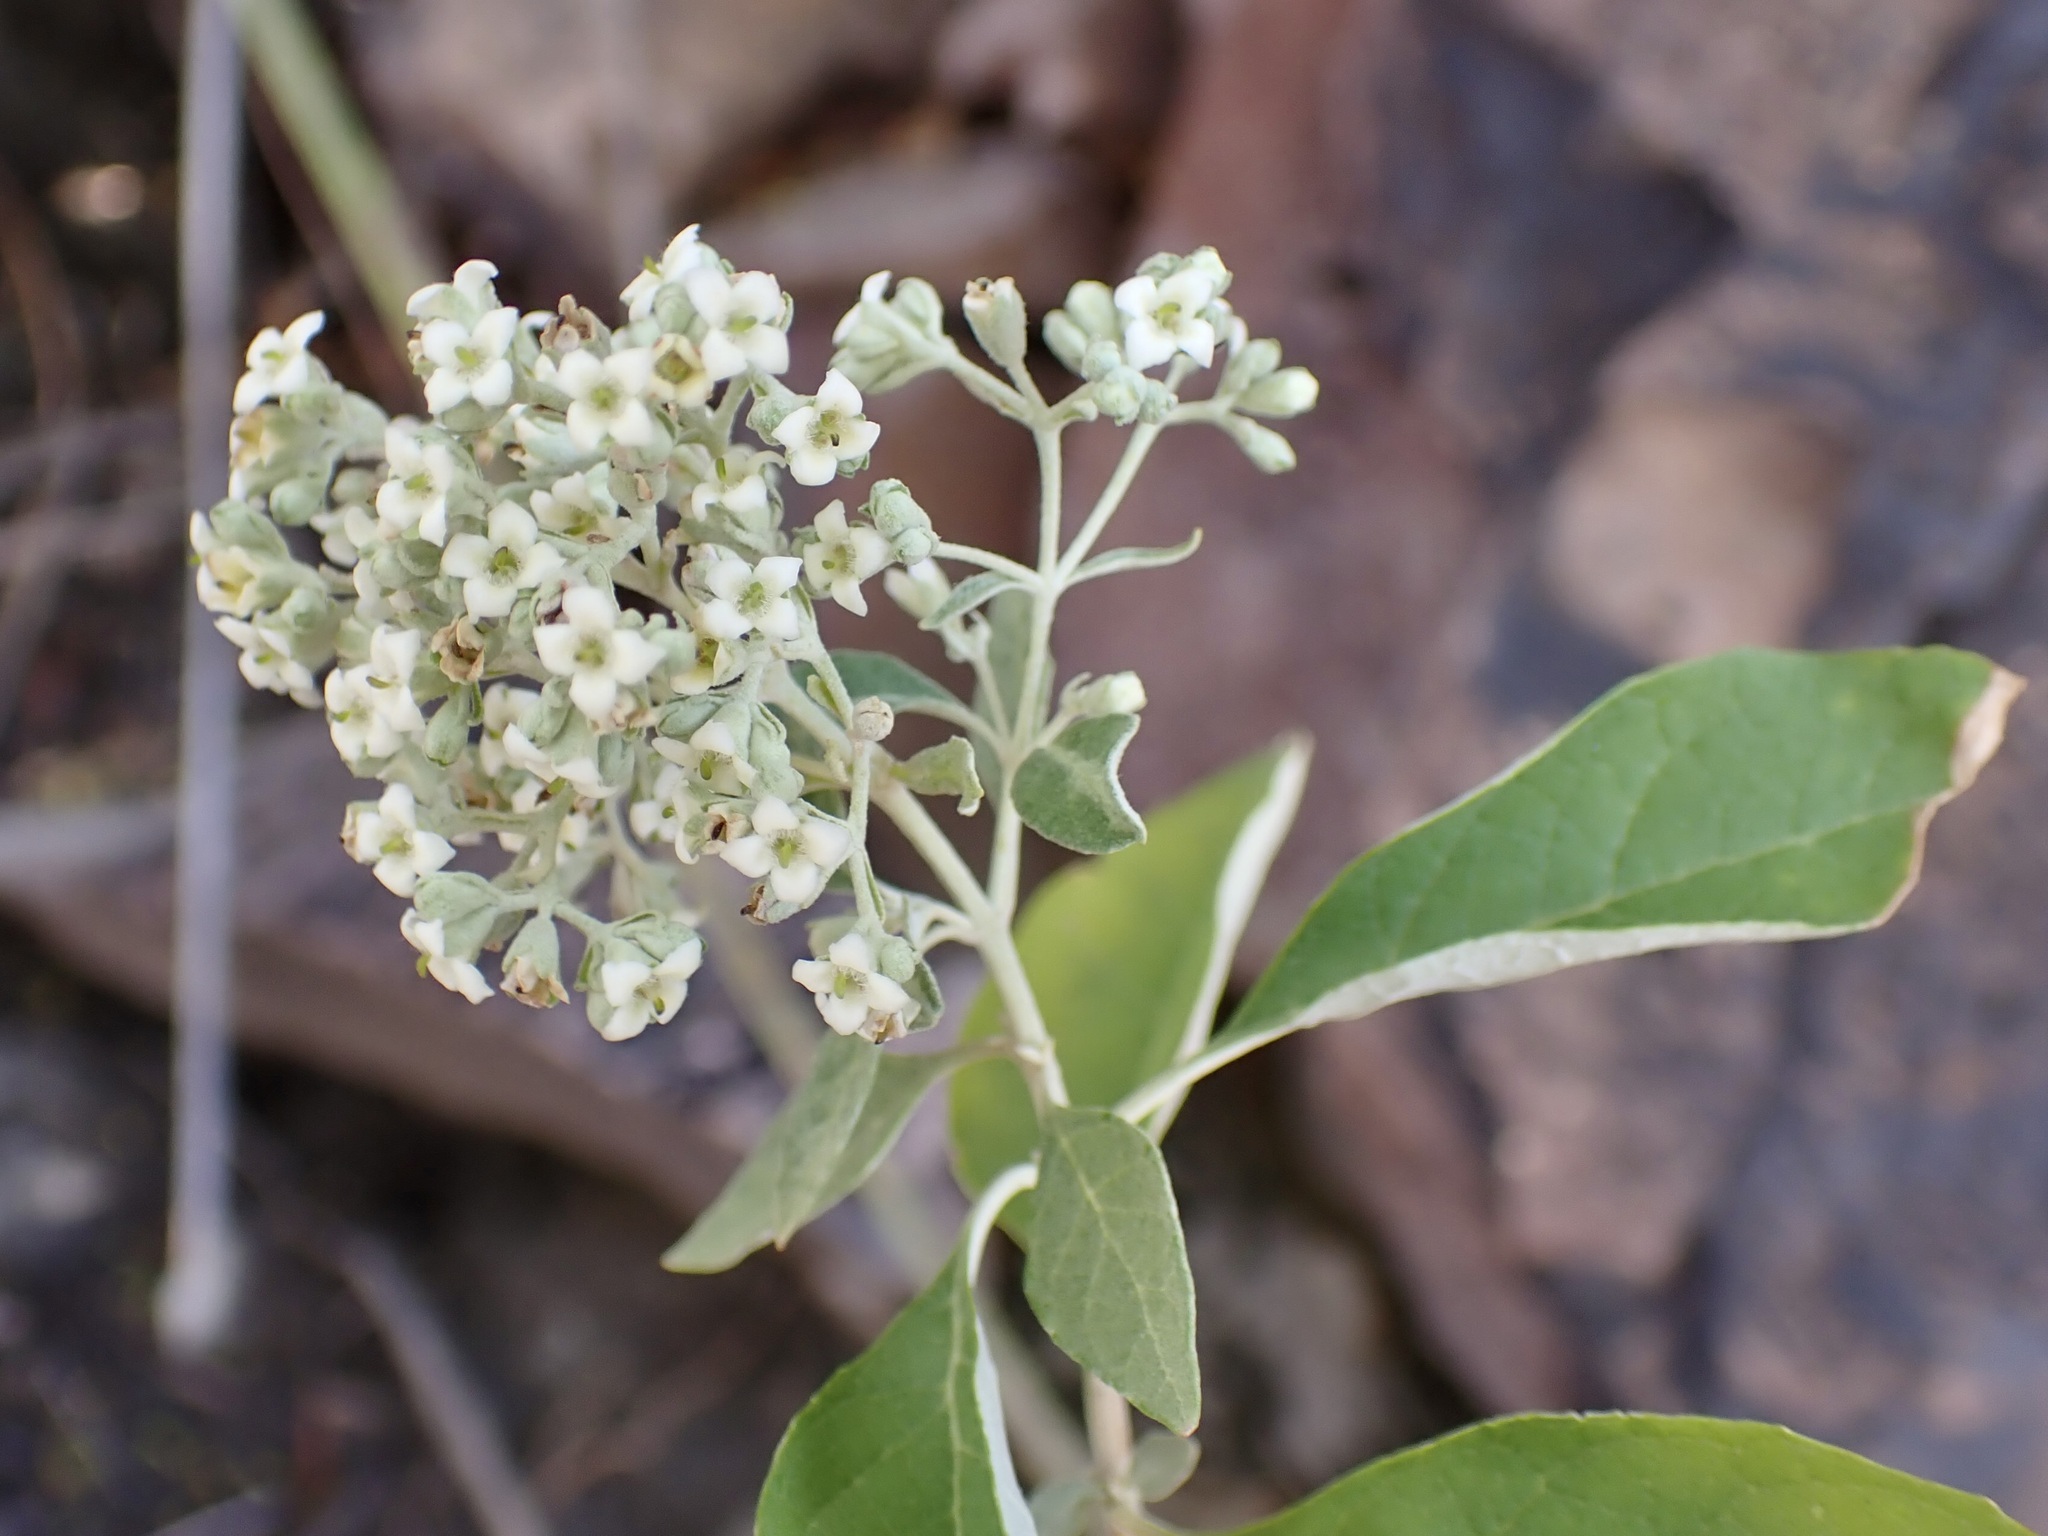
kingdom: Plantae
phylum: Tracheophyta
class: Magnoliopsida
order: Lamiales
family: Scrophulariaceae
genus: Buddleja
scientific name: Buddleja parviflora
